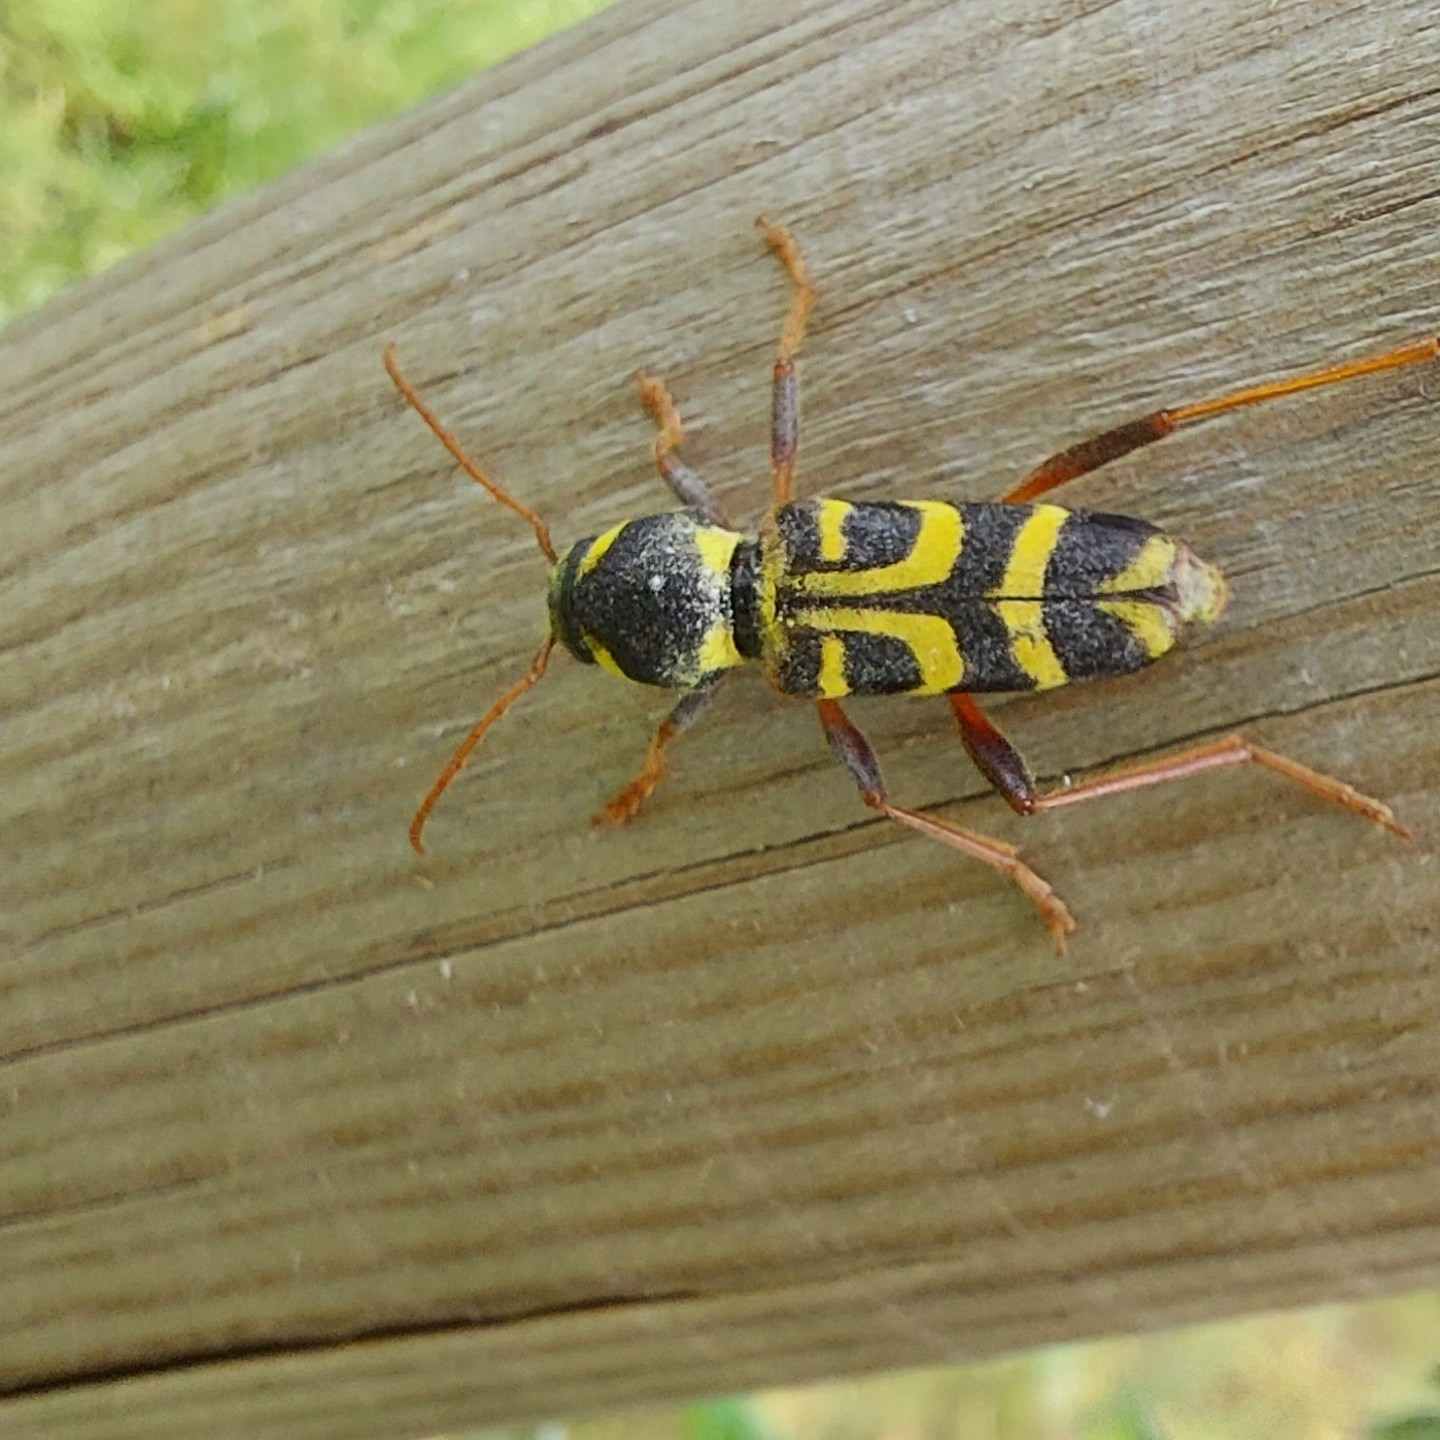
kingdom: Animalia
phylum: Arthropoda
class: Insecta
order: Coleoptera
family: Cerambycidae
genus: Xylotrechus
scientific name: Xylotrechus arvicola
